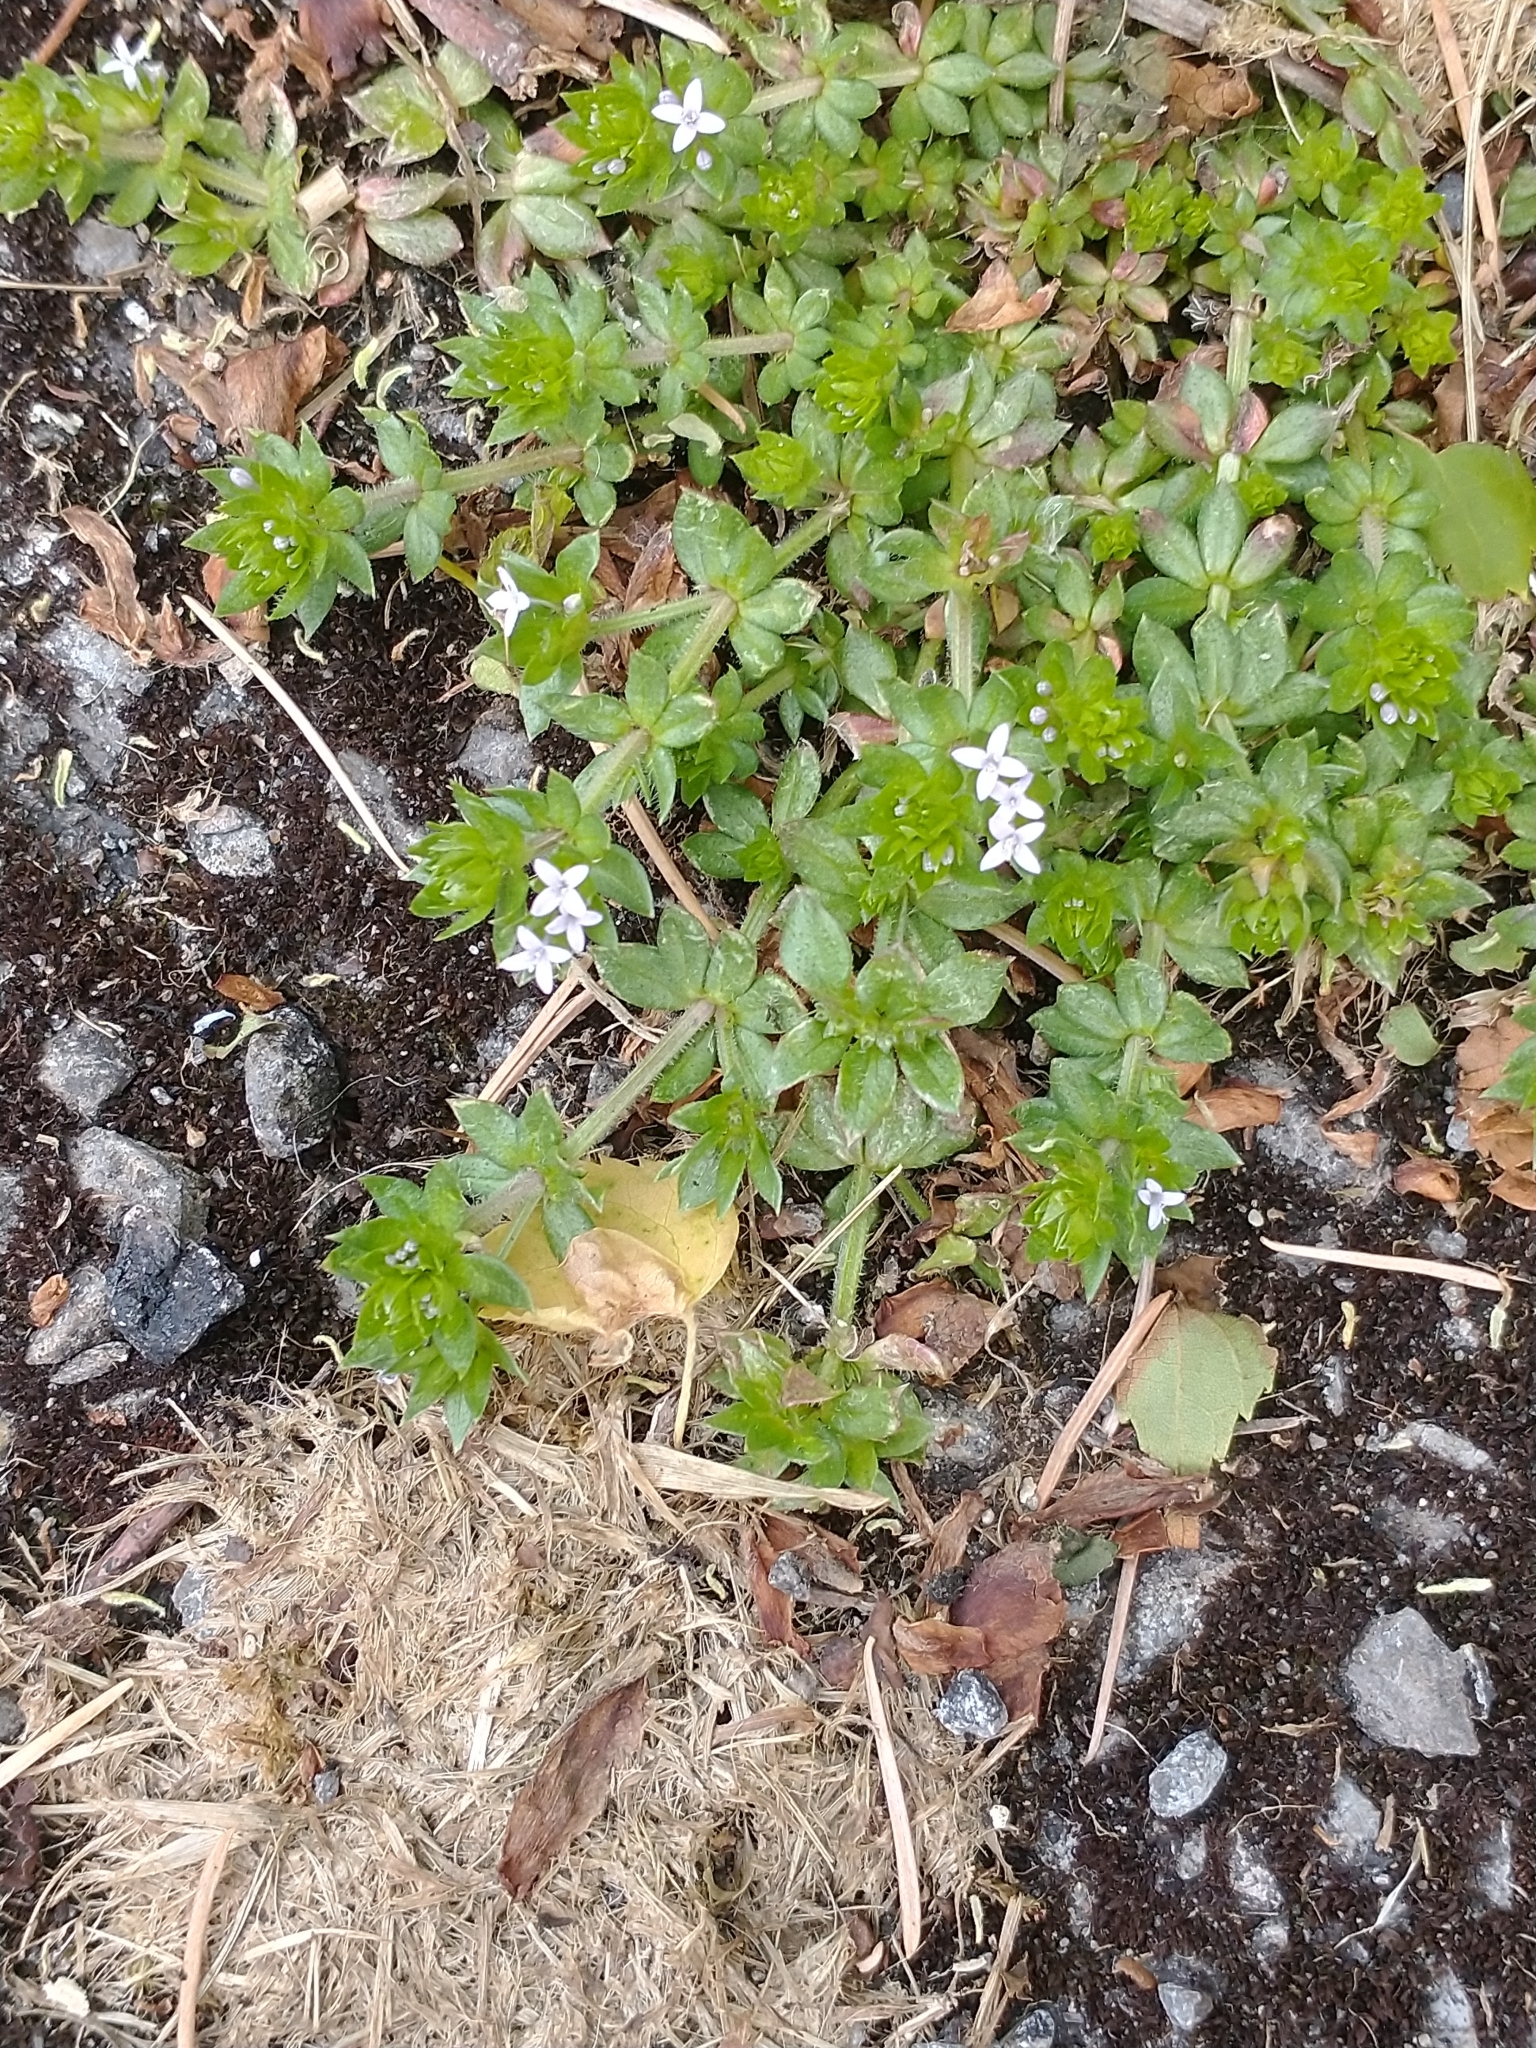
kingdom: Plantae
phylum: Tracheophyta
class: Magnoliopsida
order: Gentianales
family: Rubiaceae
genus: Sherardia
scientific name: Sherardia arvensis
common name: Field madder
